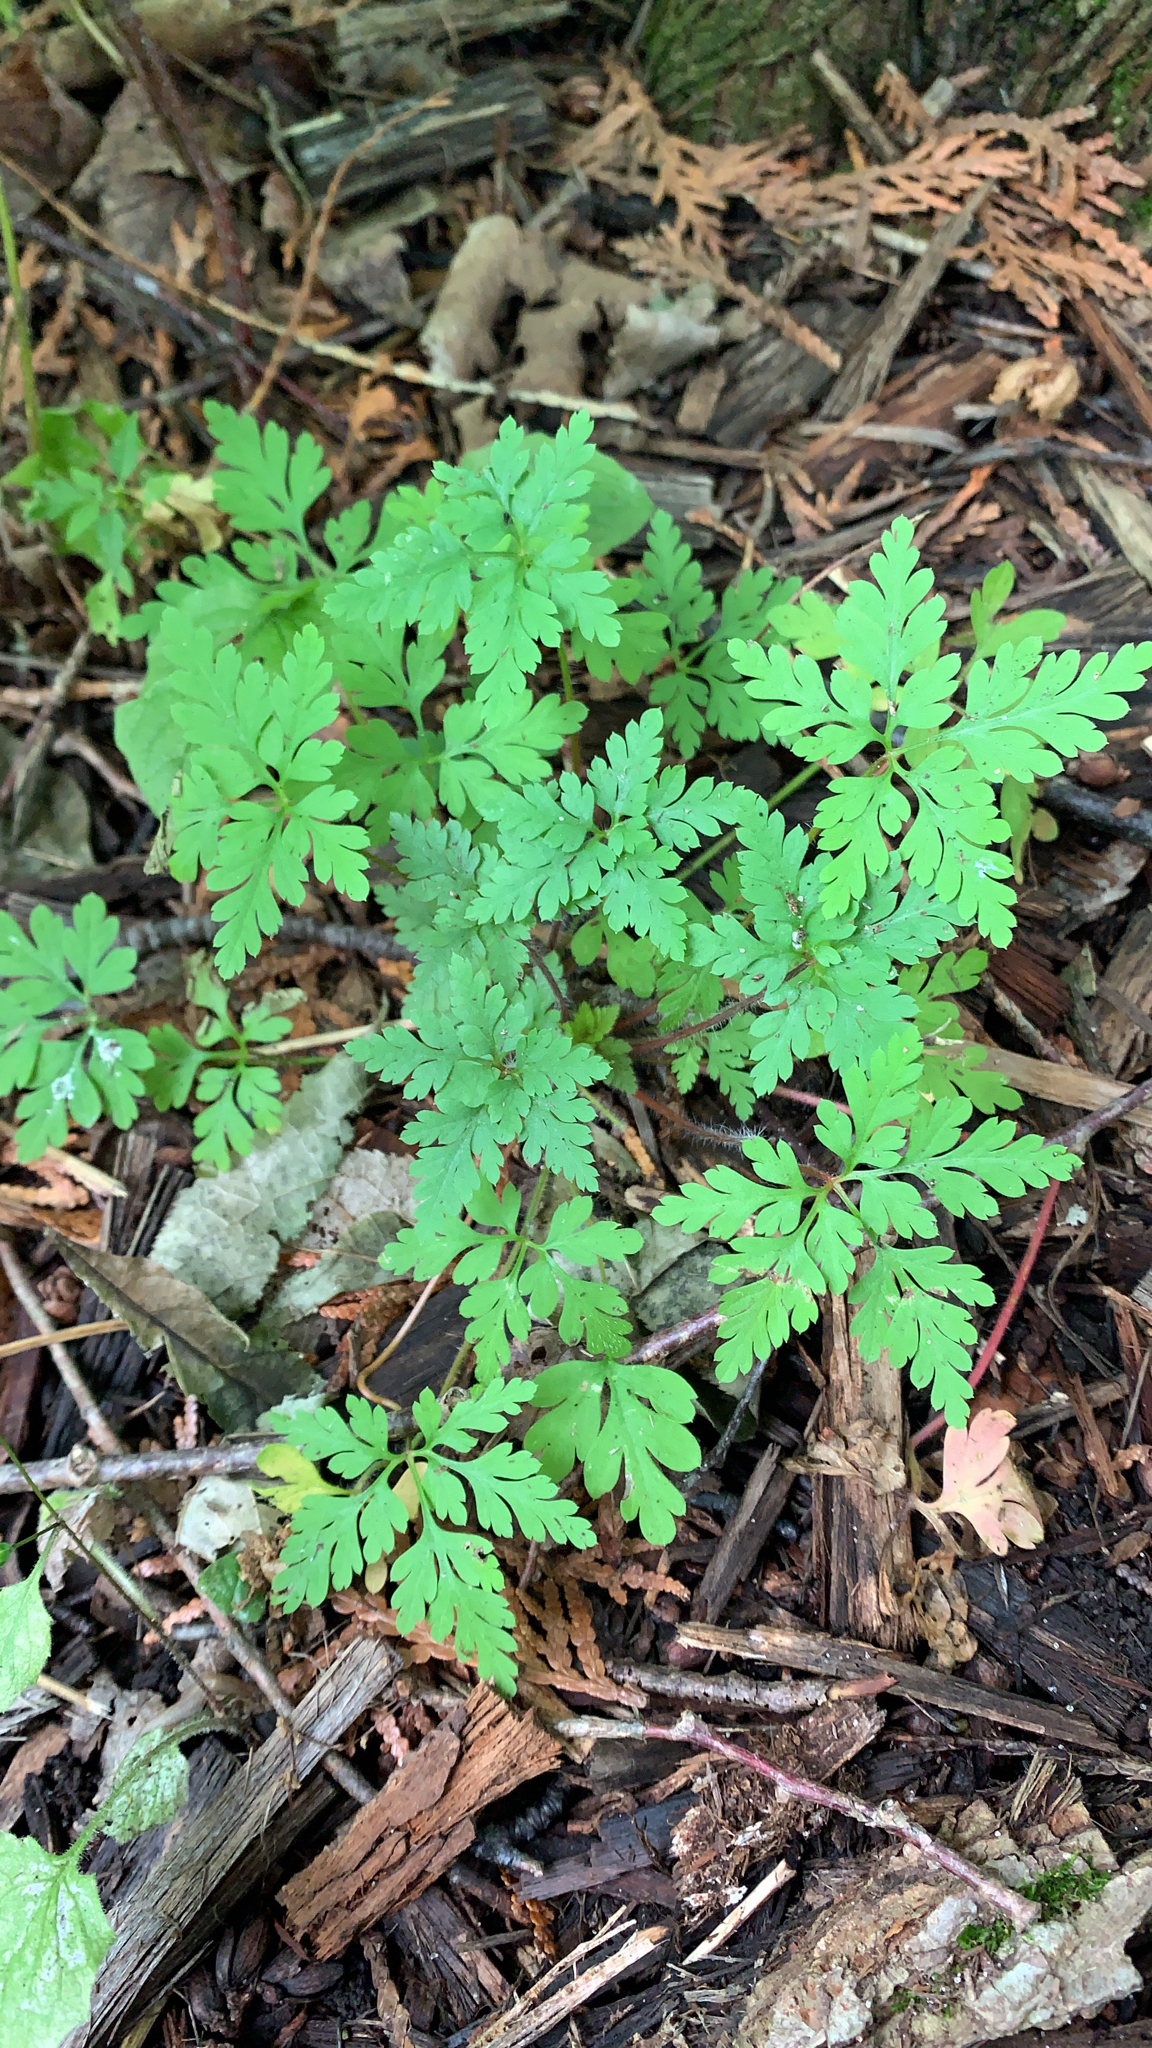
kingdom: Plantae
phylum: Tracheophyta
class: Magnoliopsida
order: Geraniales
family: Geraniaceae
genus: Geranium
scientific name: Geranium robertianum
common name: Herb-robert
